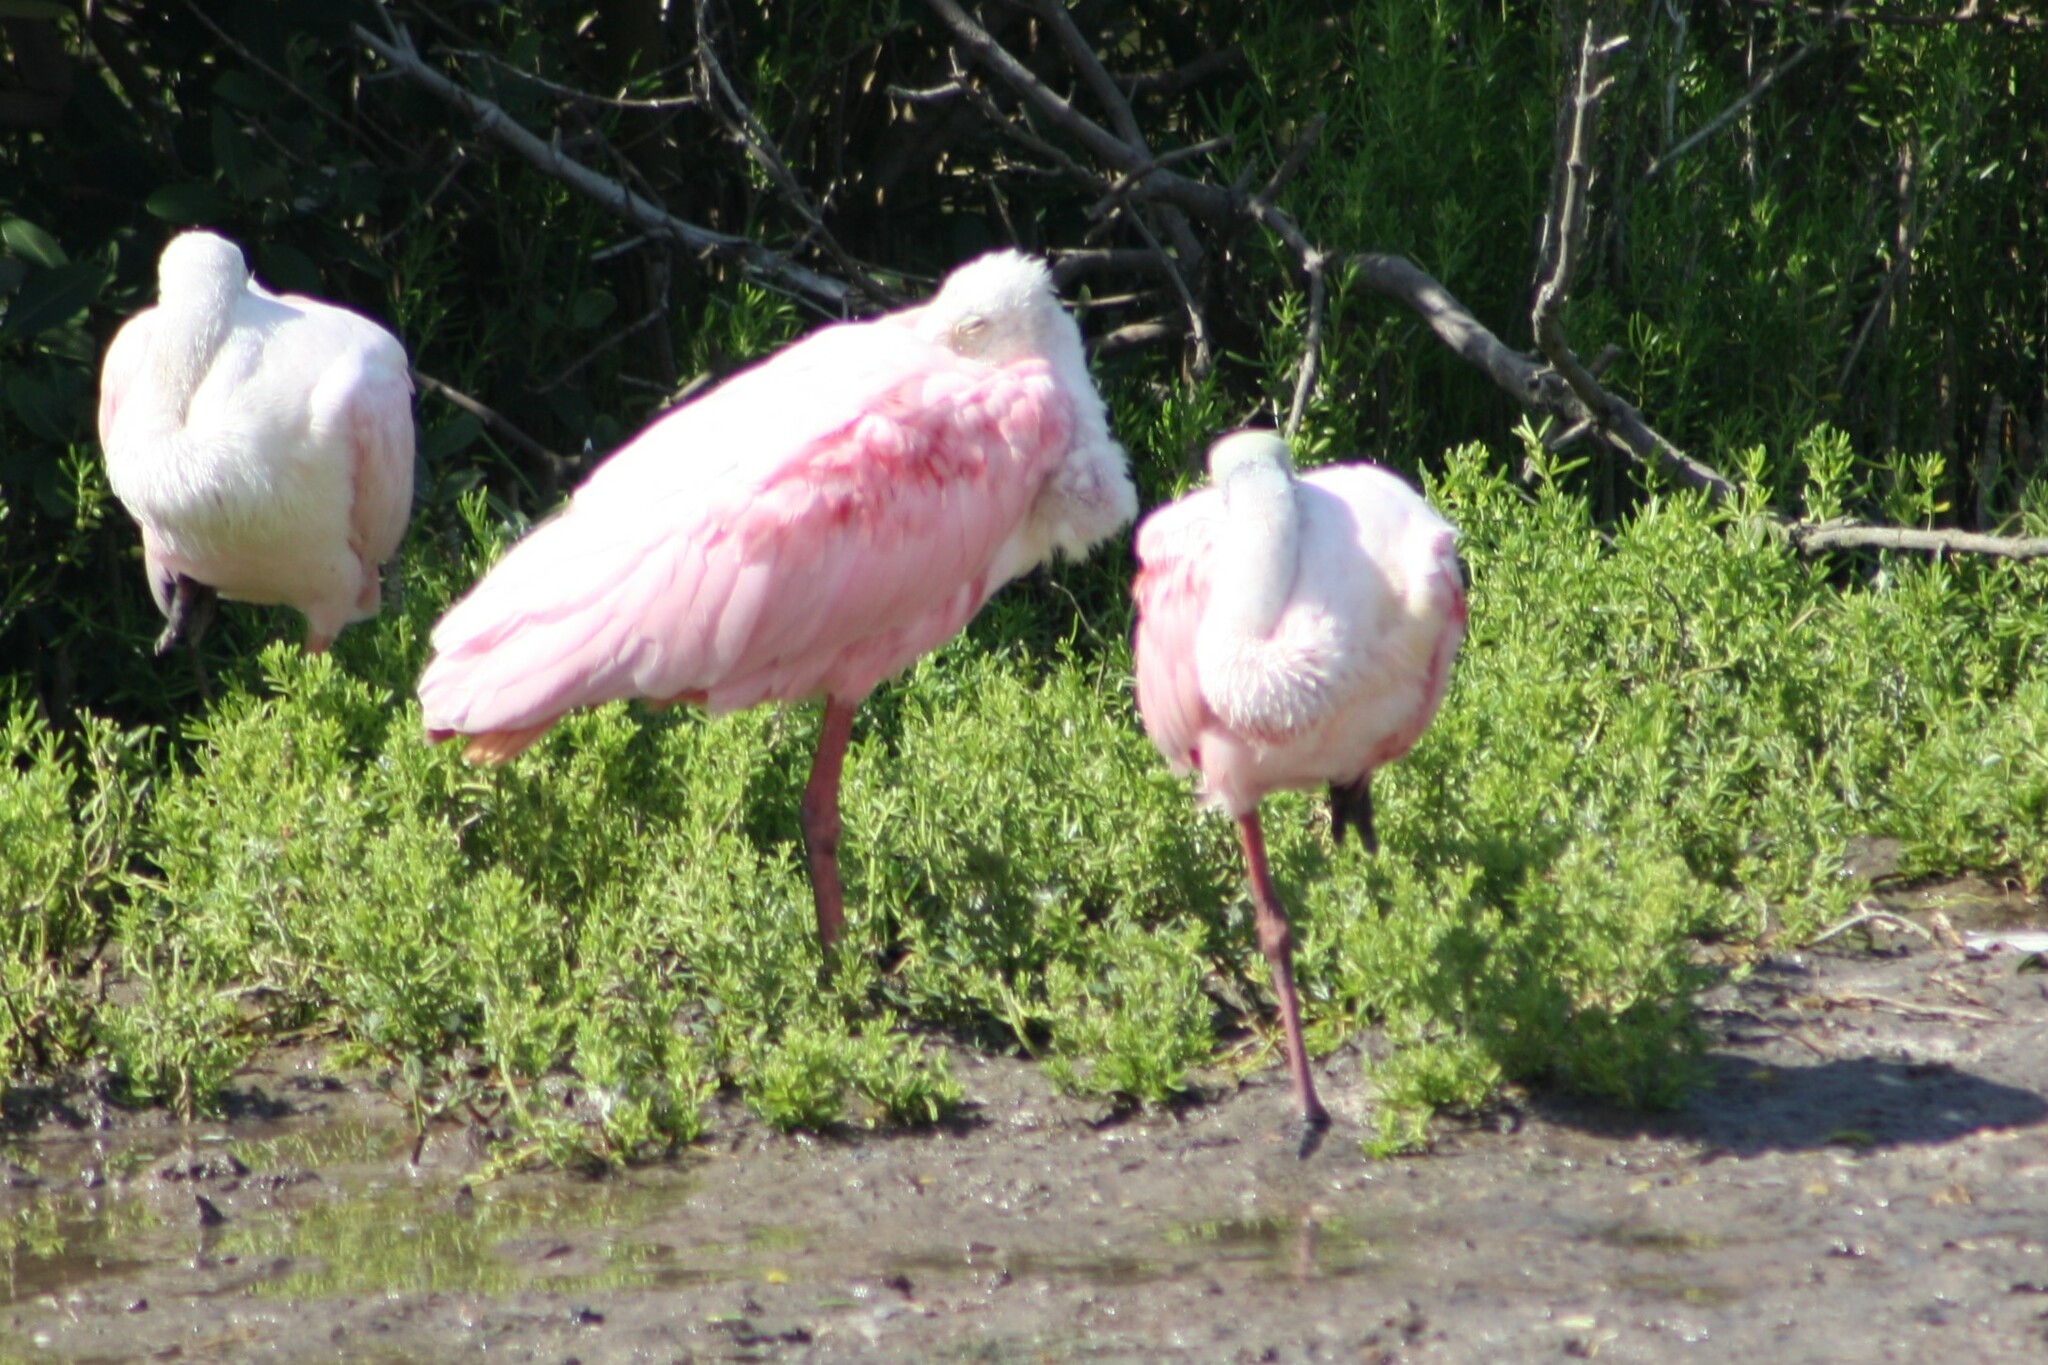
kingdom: Animalia
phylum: Chordata
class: Aves
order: Pelecaniformes
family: Threskiornithidae
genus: Platalea
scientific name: Platalea ajaja
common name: Roseate spoonbill
